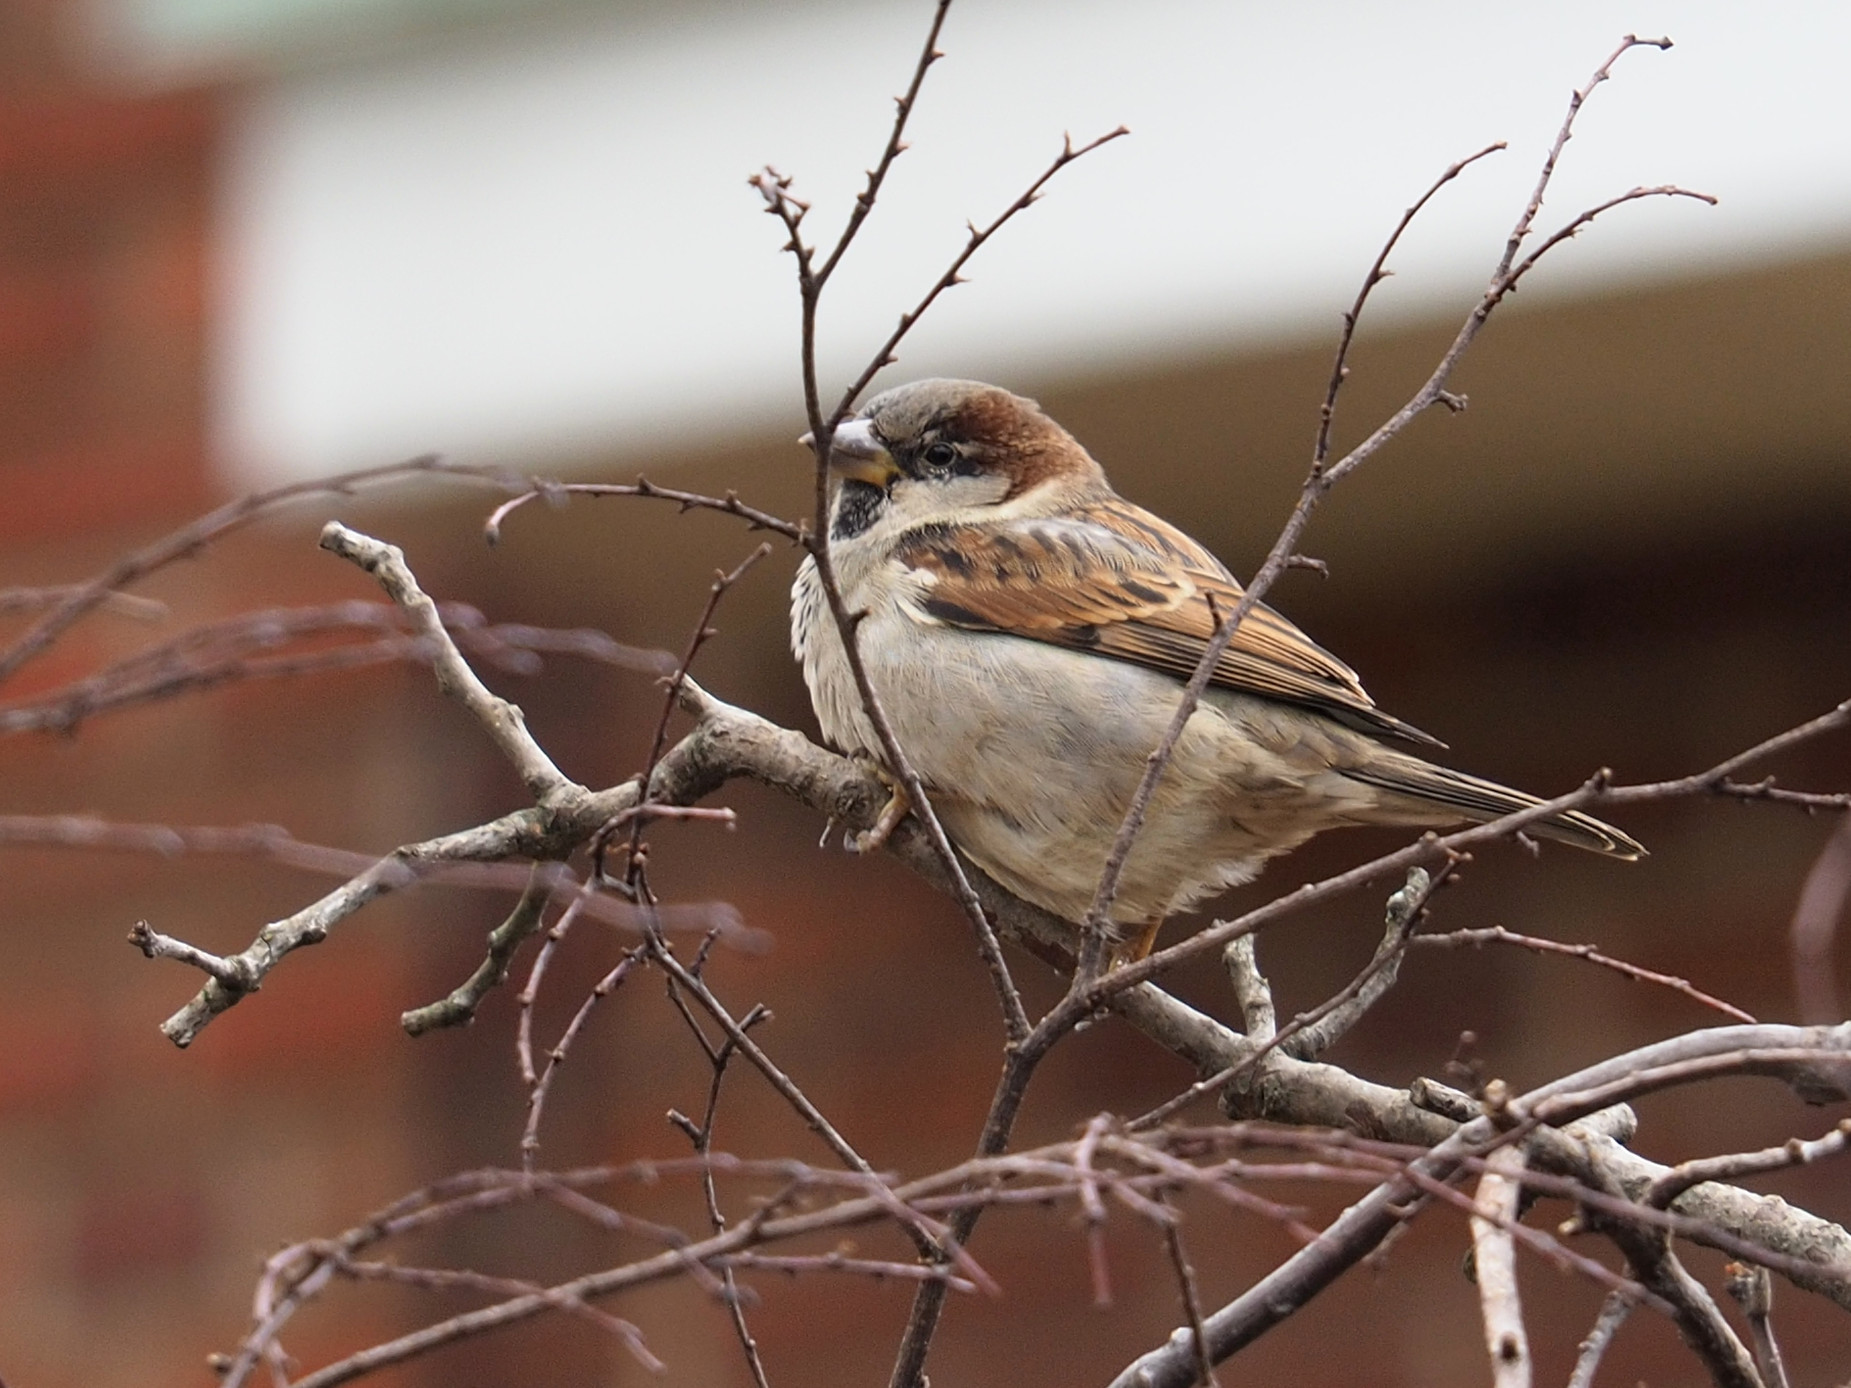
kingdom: Animalia
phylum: Chordata
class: Aves
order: Passeriformes
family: Passeridae
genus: Passer
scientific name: Passer domesticus
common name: House sparrow
